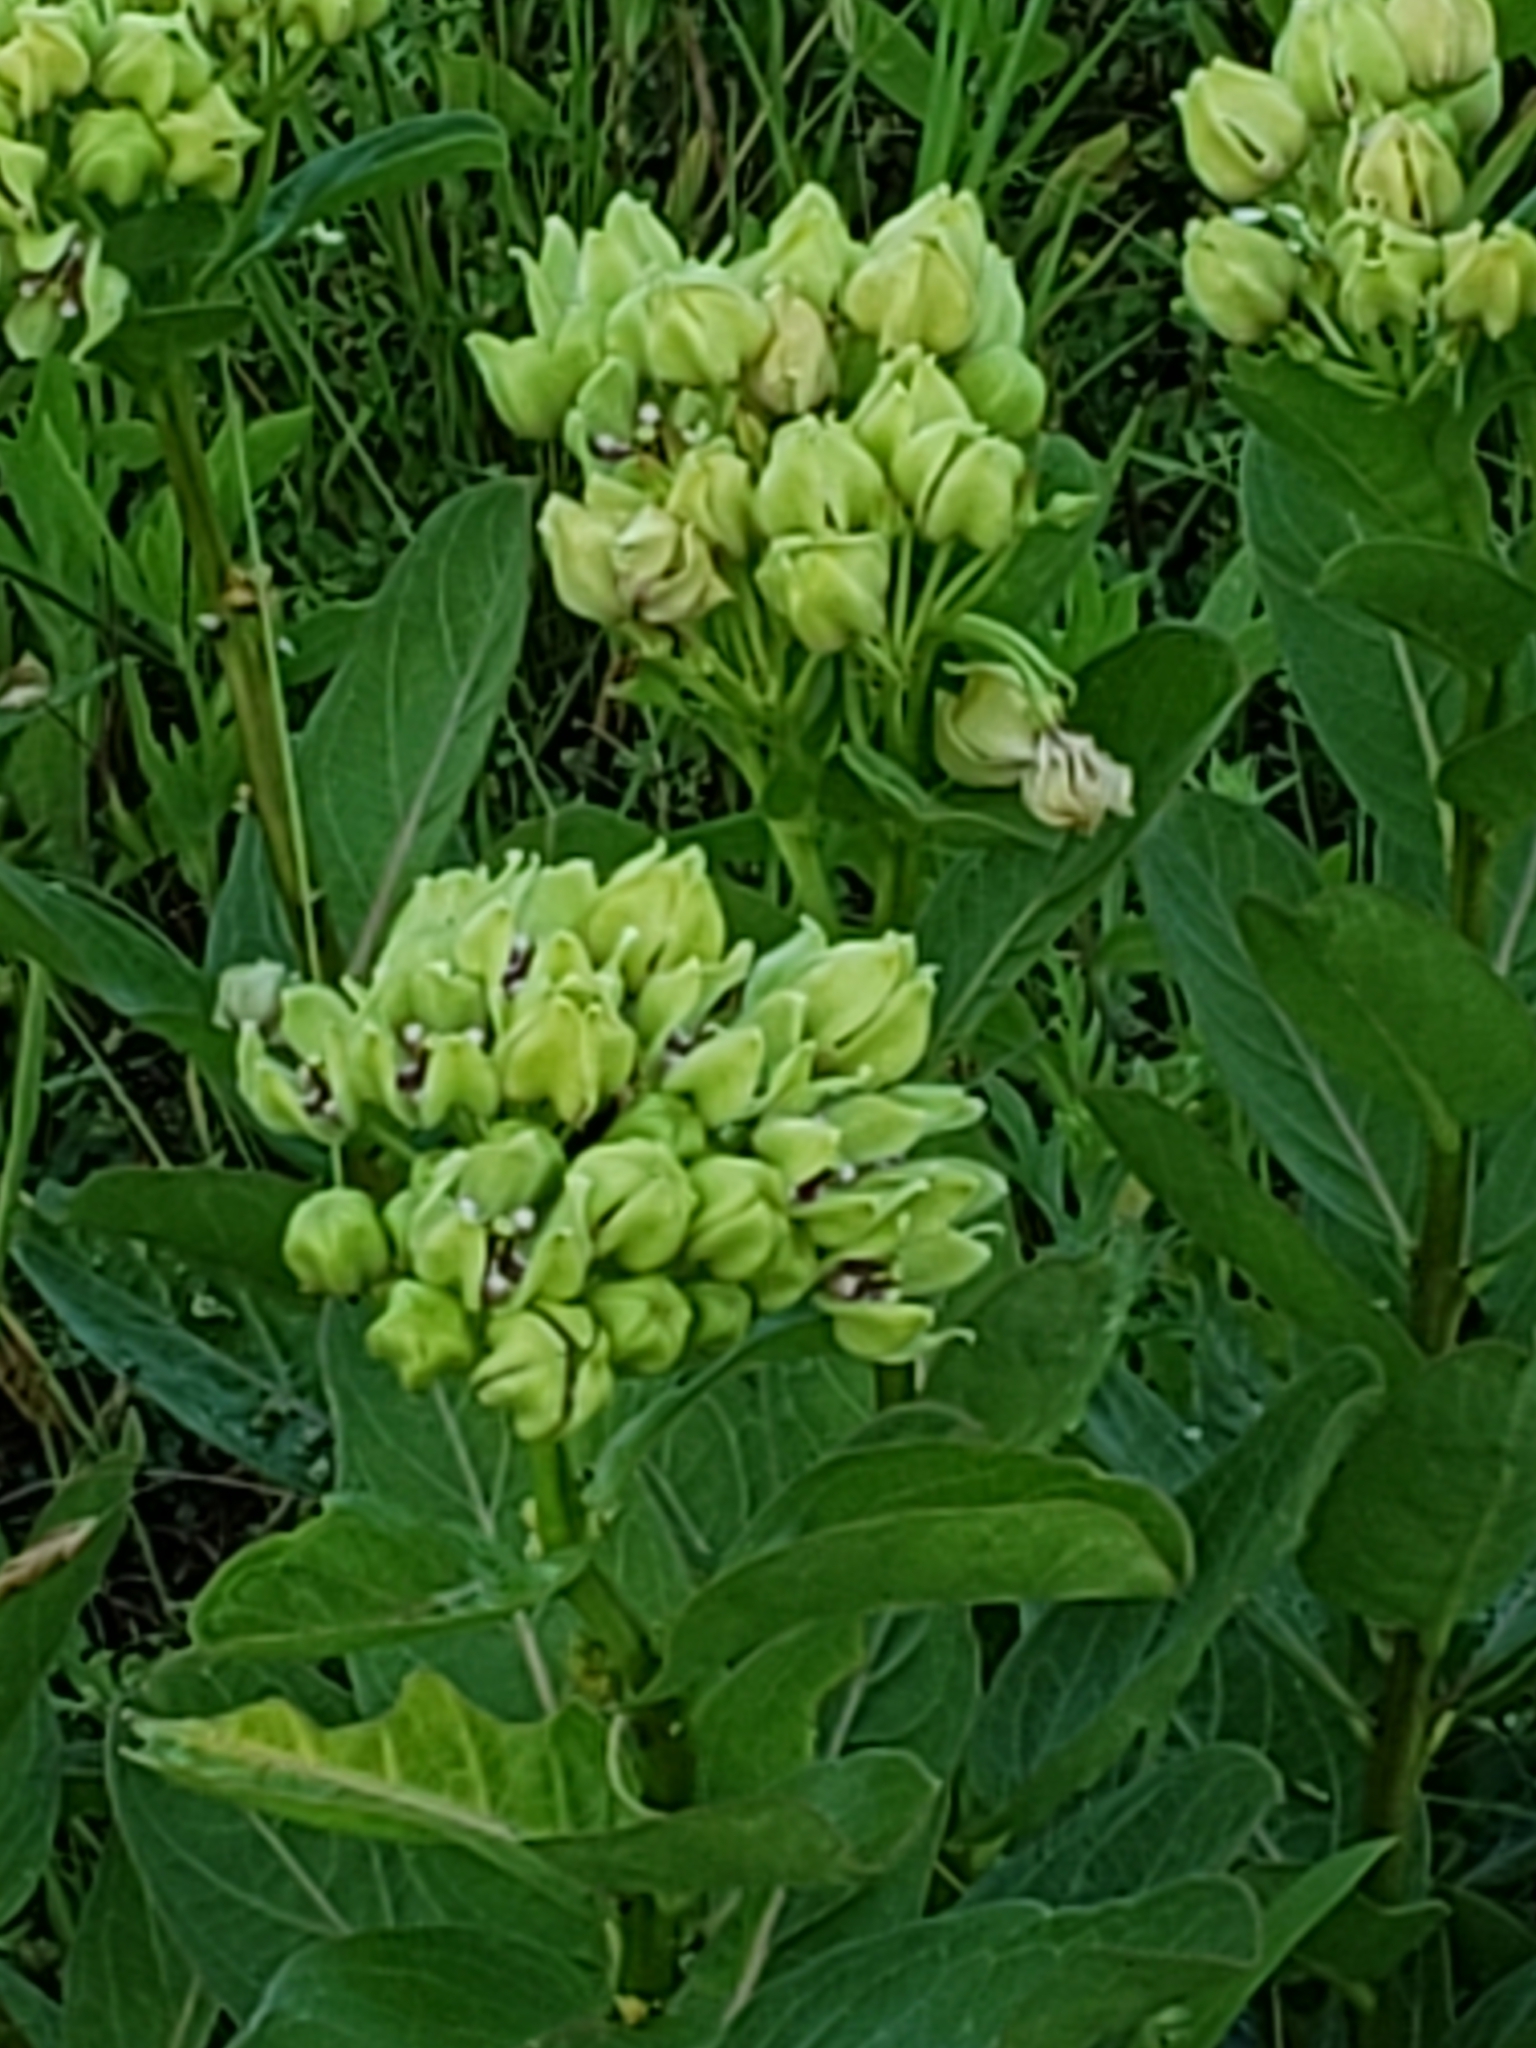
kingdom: Plantae
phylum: Tracheophyta
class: Magnoliopsida
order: Gentianales
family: Apocynaceae
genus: Asclepias
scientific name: Asclepias viridis
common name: Antelope-horns
